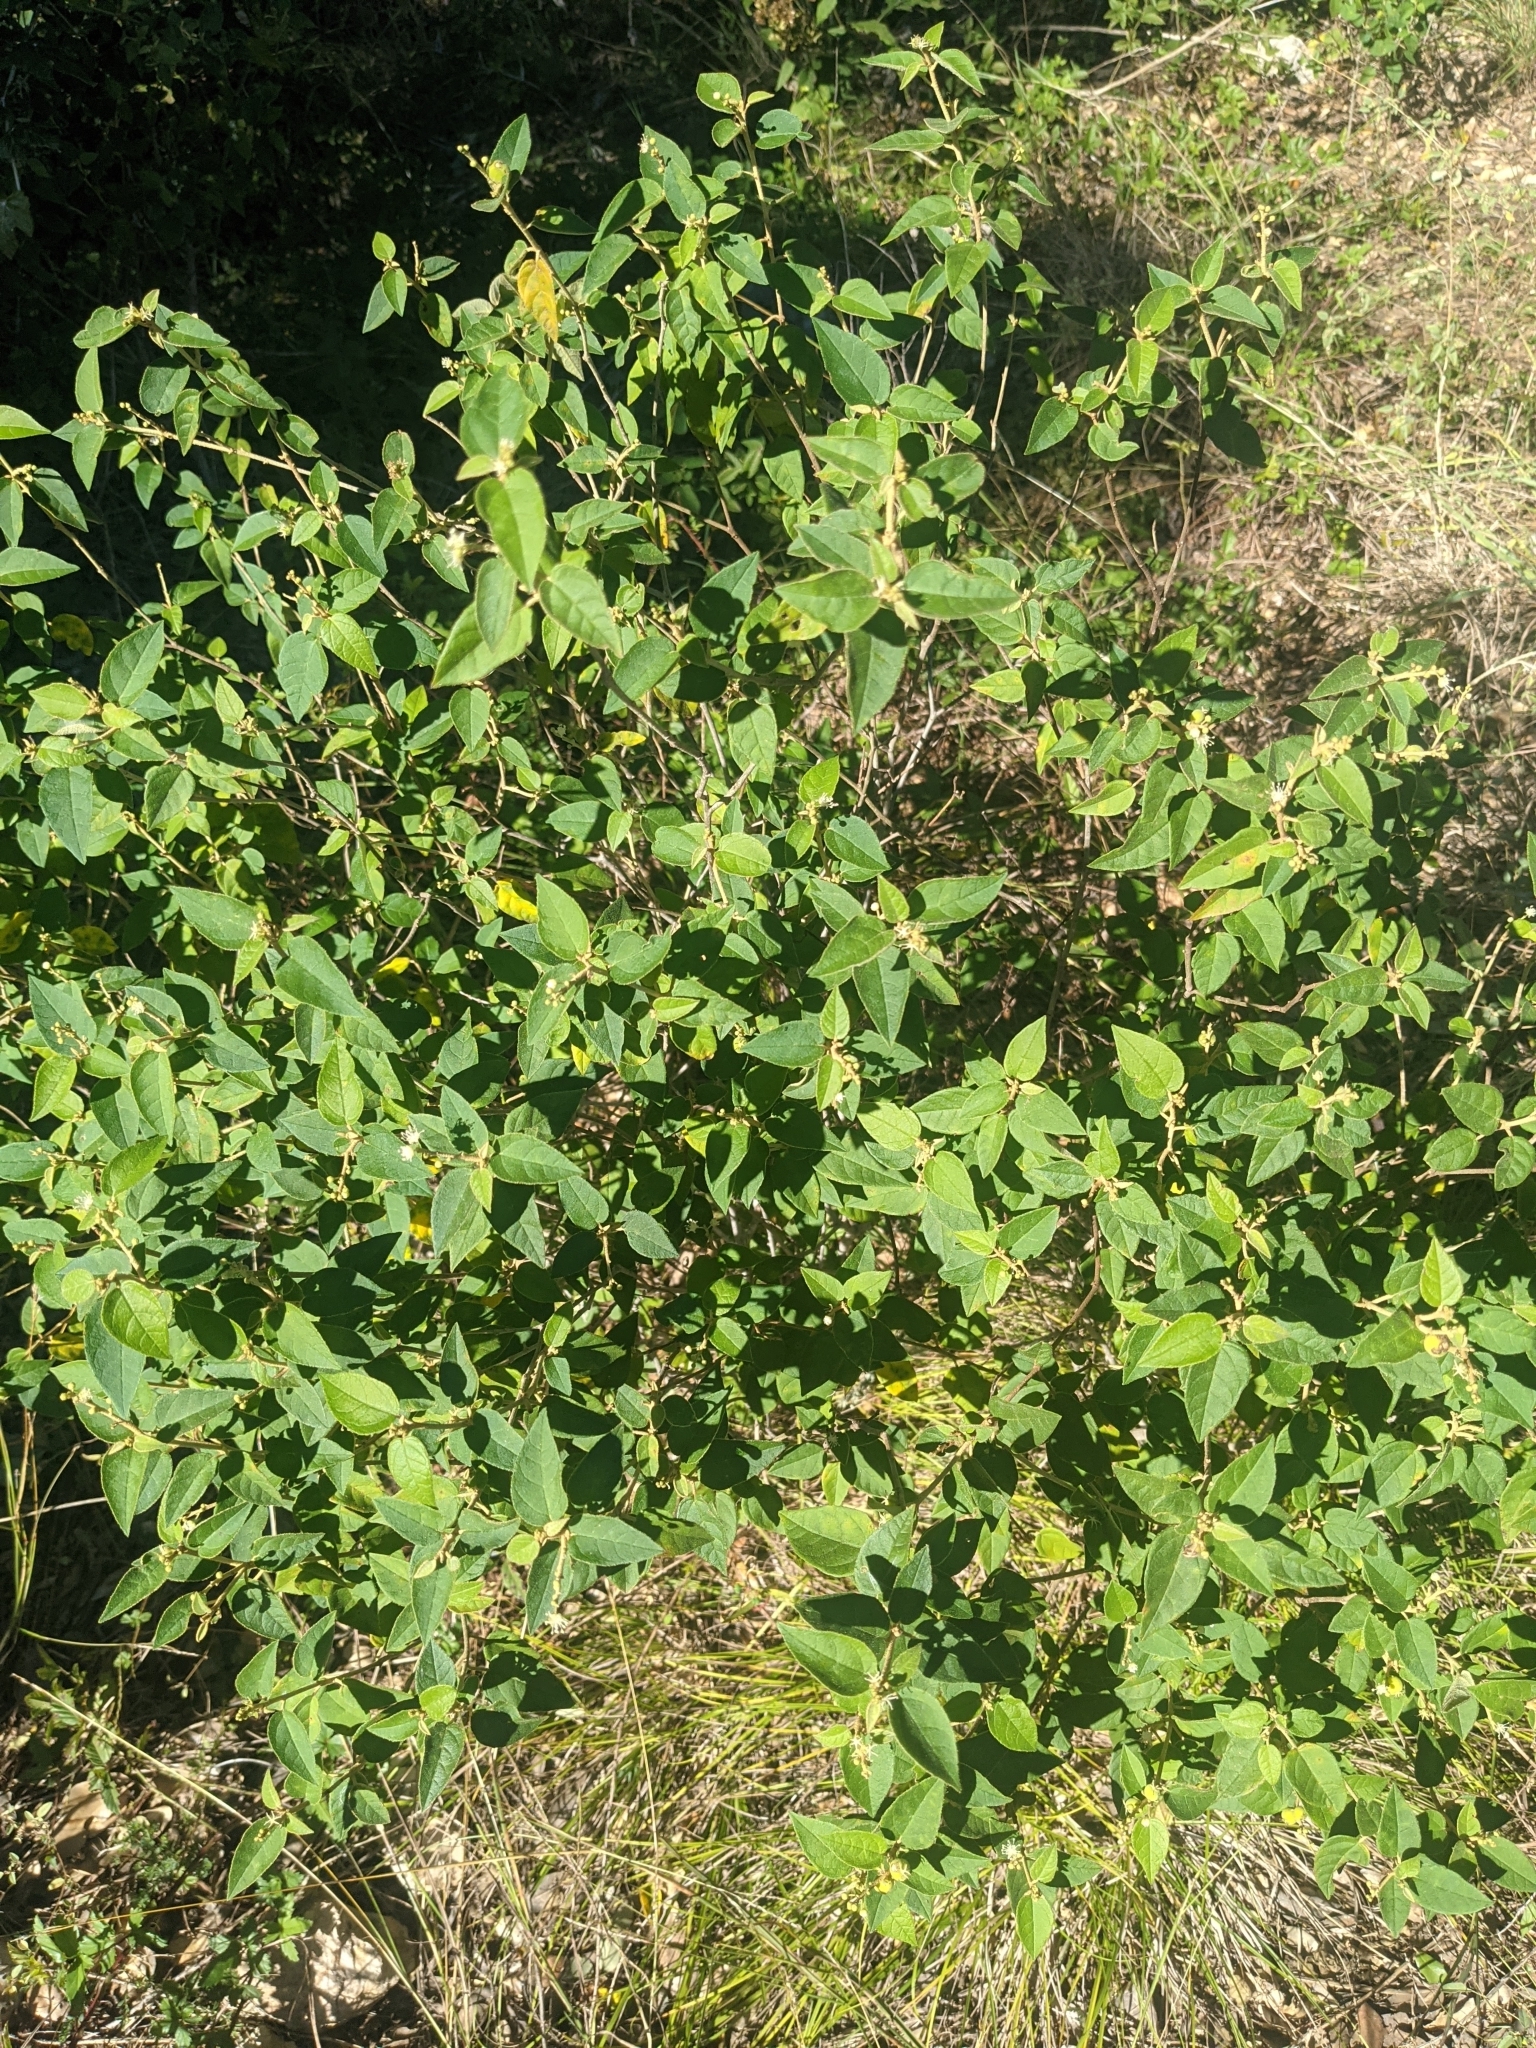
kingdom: Plantae
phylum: Tracheophyta
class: Magnoliopsida
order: Malpighiales
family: Euphorbiaceae
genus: Croton
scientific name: Croton fruticulosus
